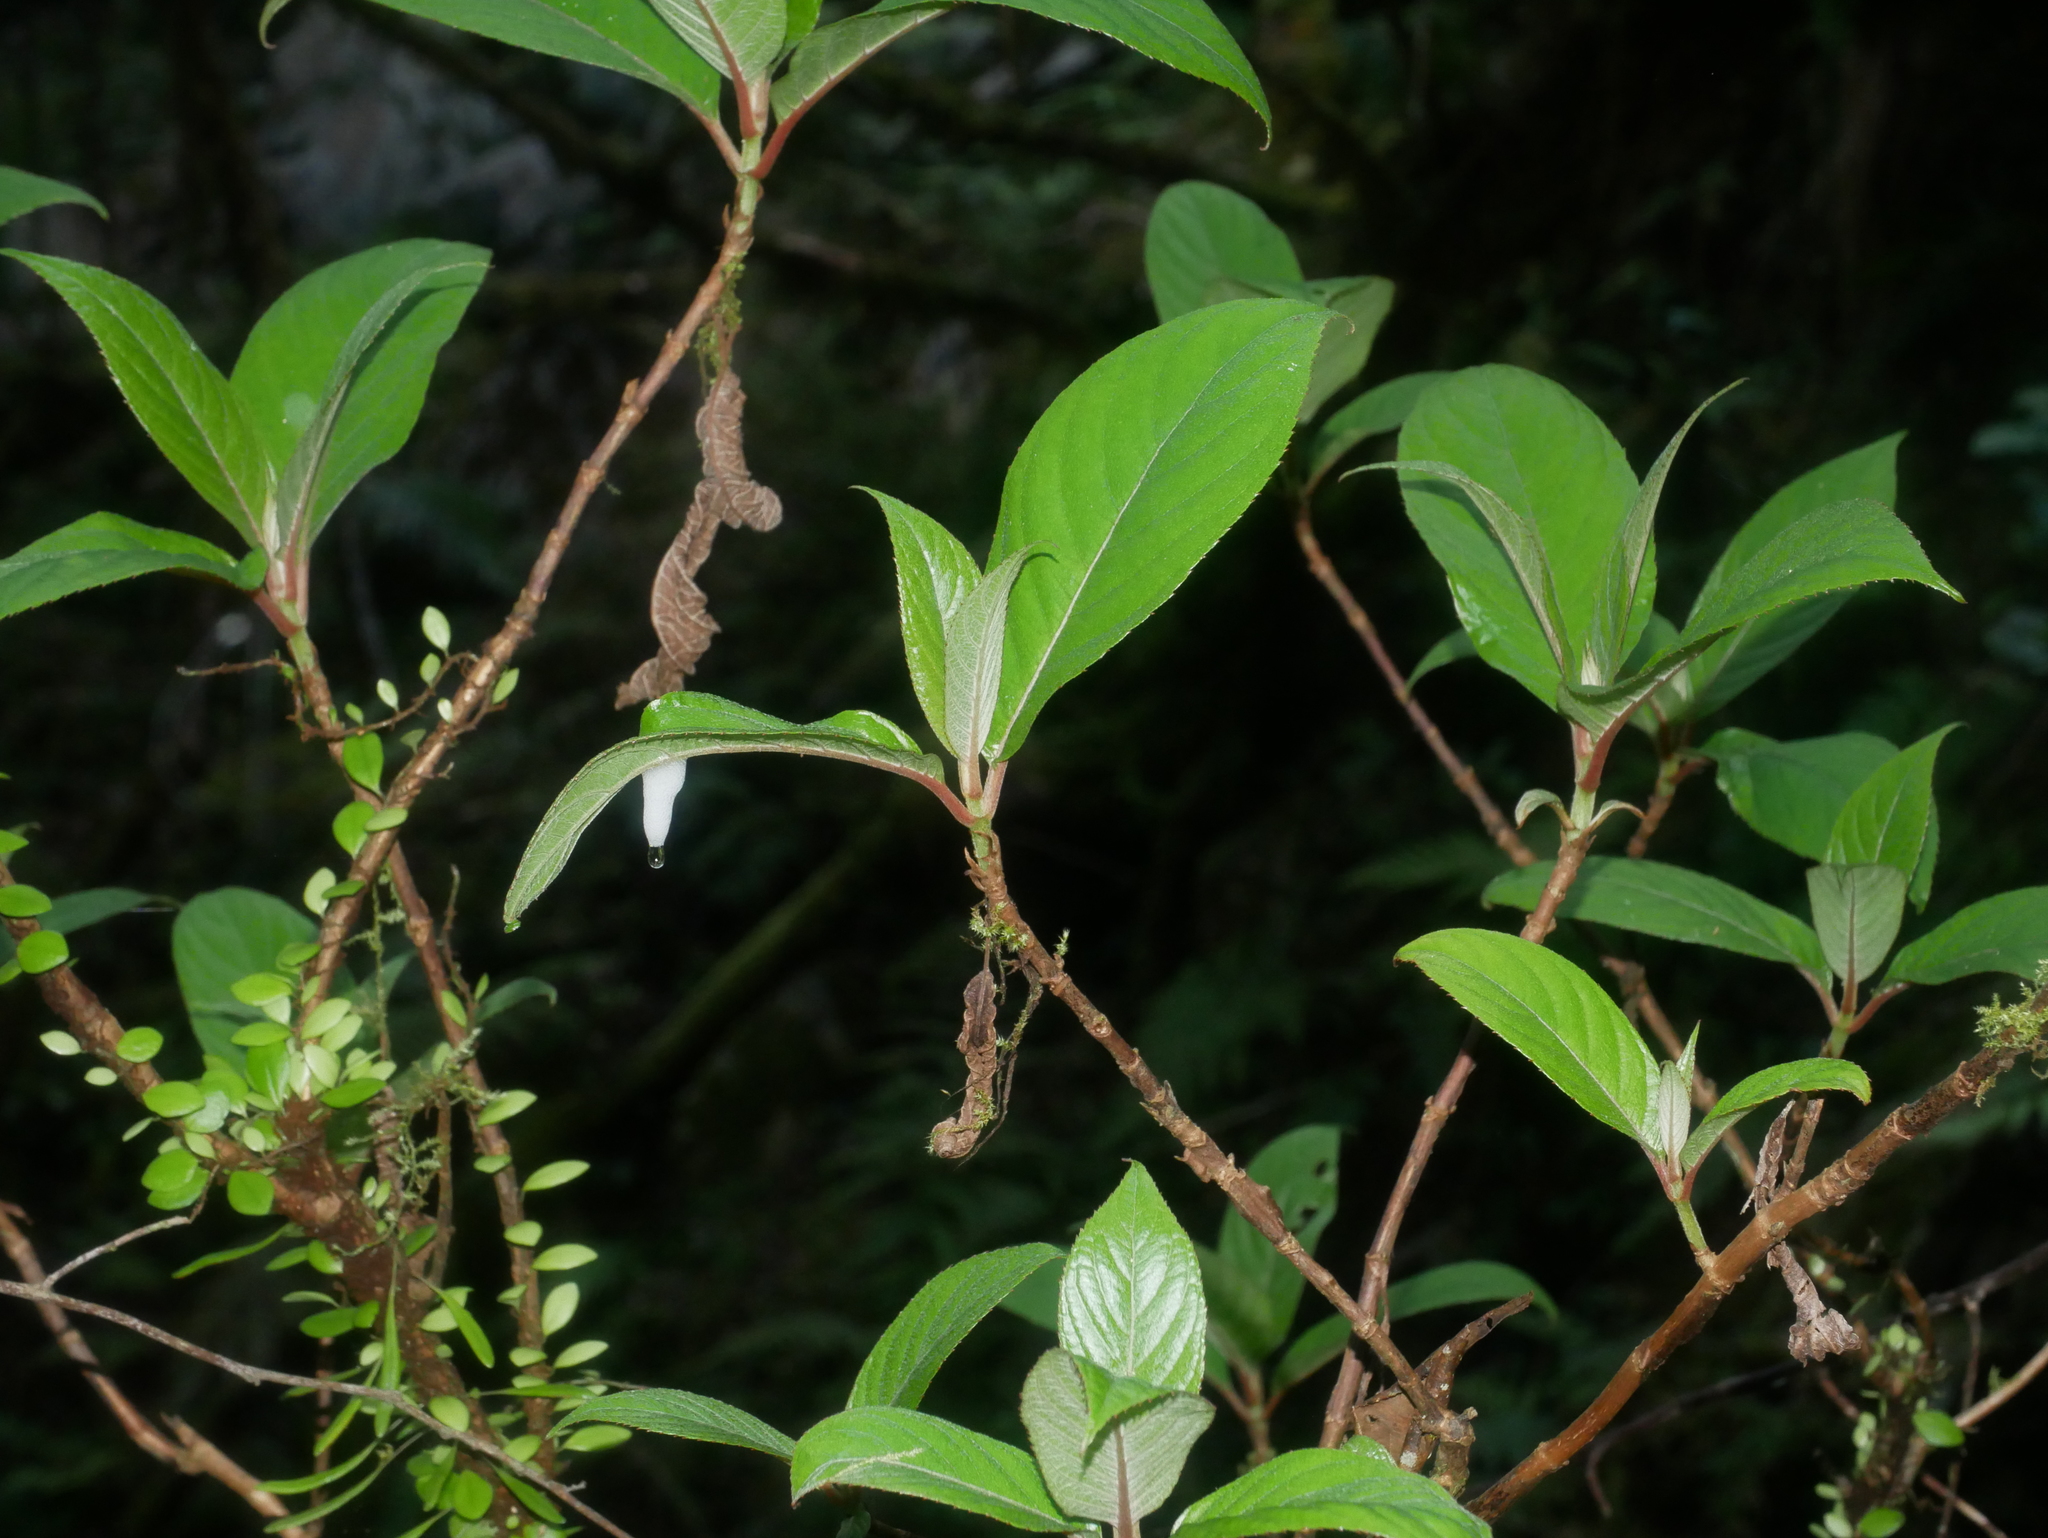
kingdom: Plantae
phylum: Tracheophyta
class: Magnoliopsida
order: Cornales
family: Hydrangeaceae
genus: Hydrangea
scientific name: Hydrangea longifolia
